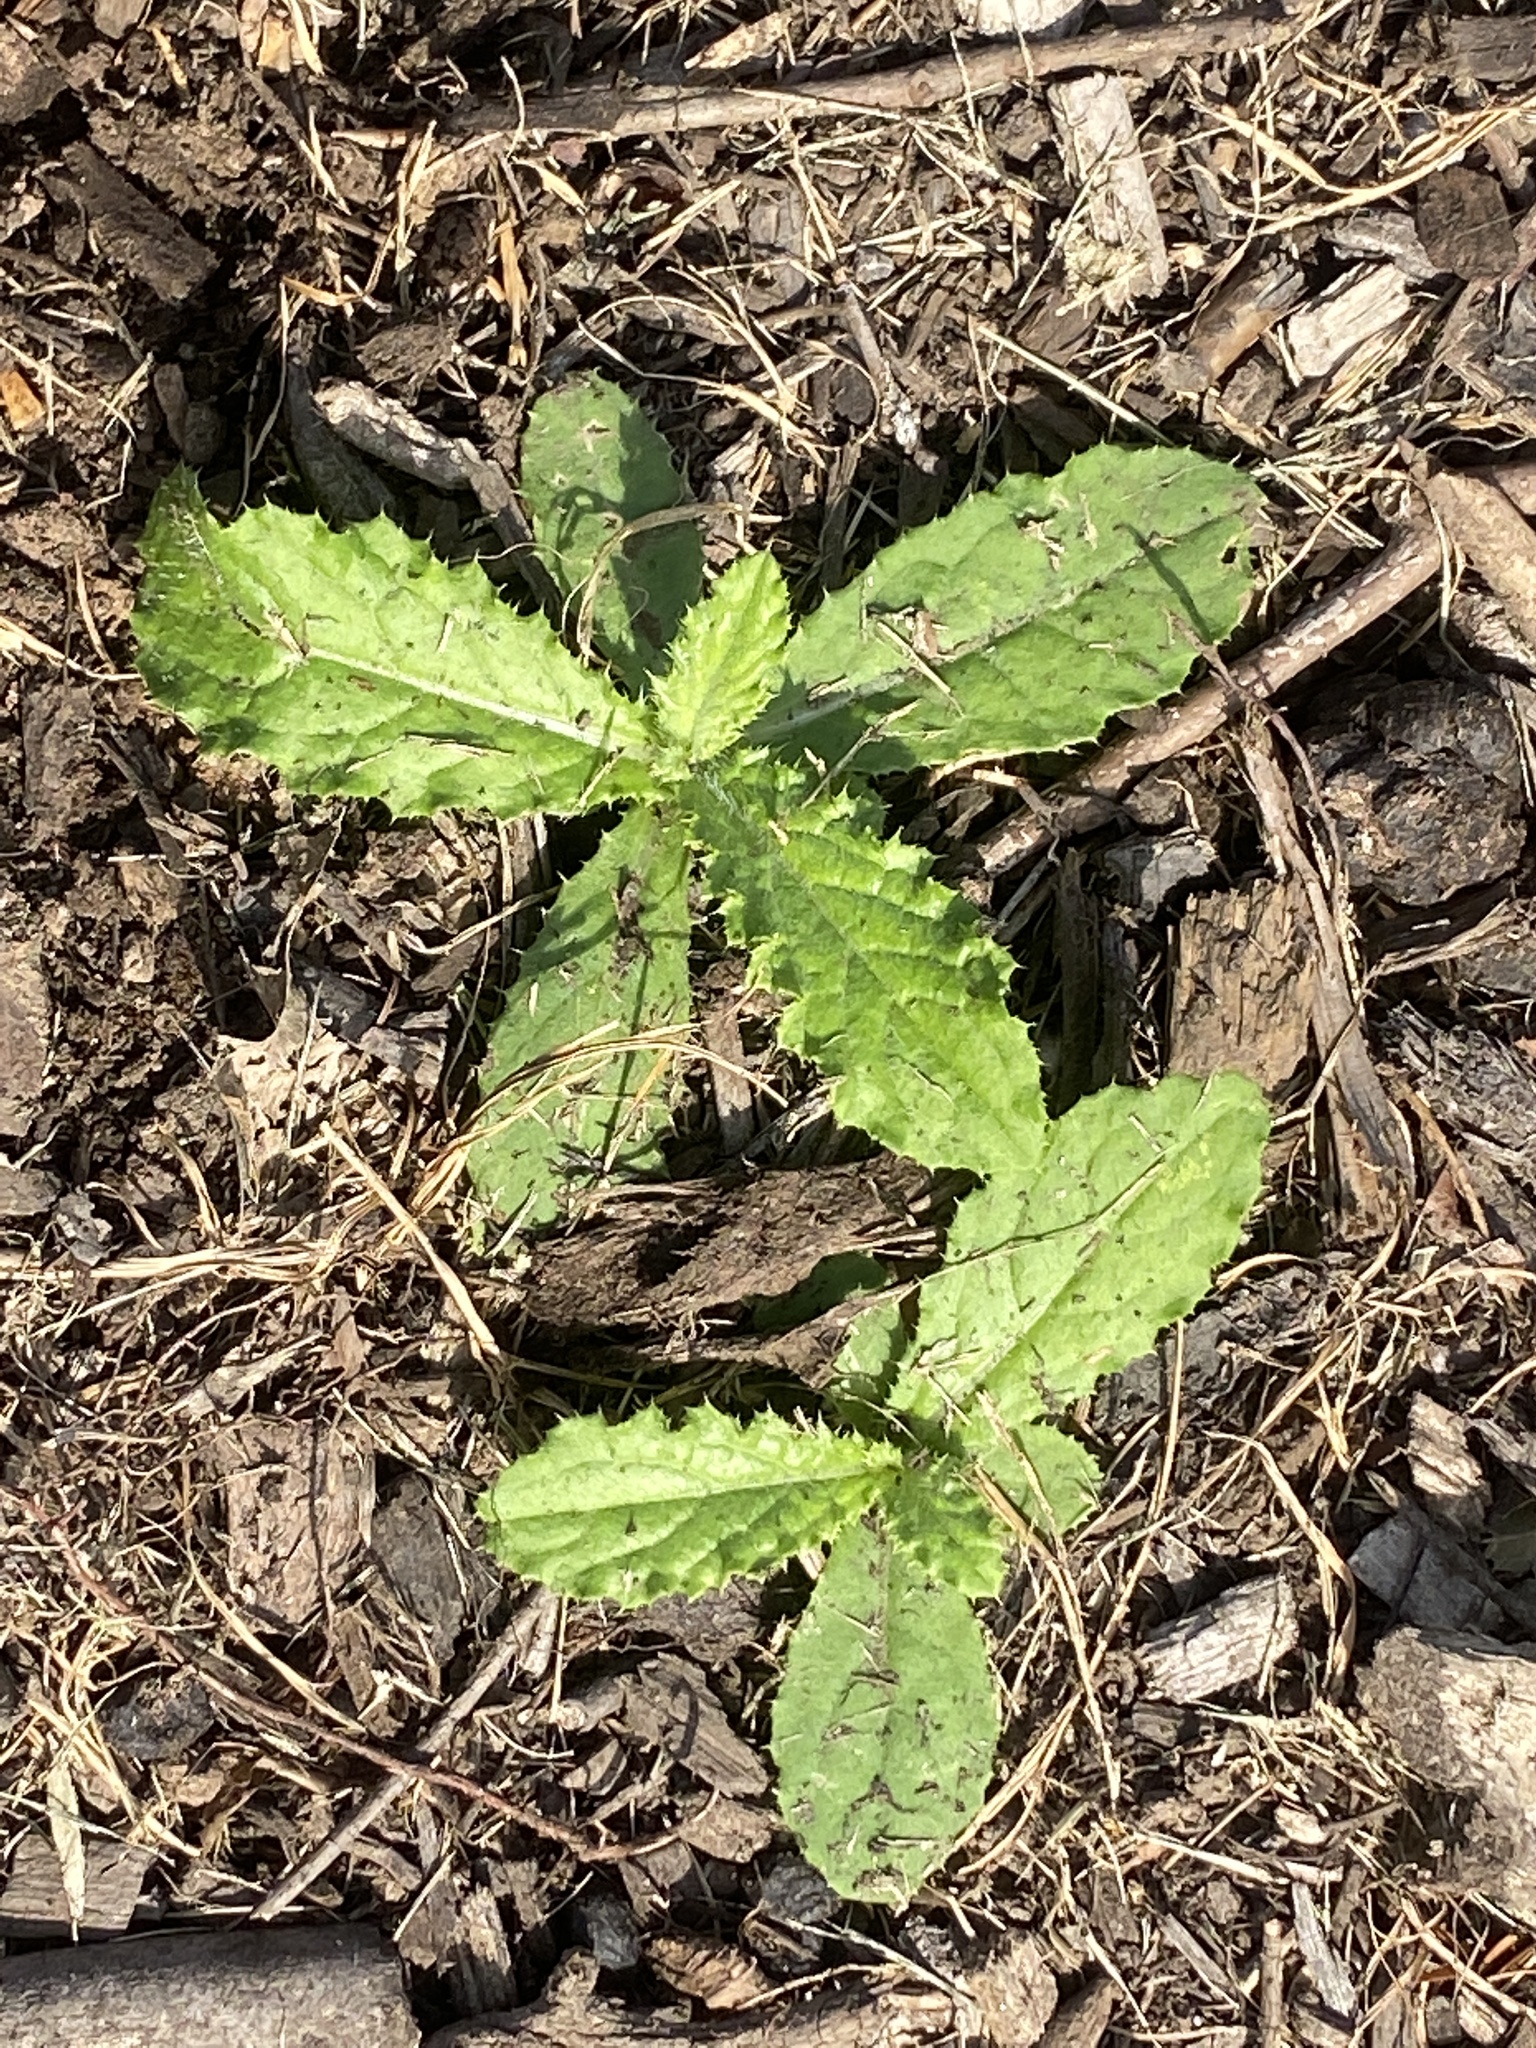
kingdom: Plantae
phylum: Tracheophyta
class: Magnoliopsida
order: Asterales
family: Asteraceae
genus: Cirsium
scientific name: Cirsium arvense
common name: Creeping thistle
